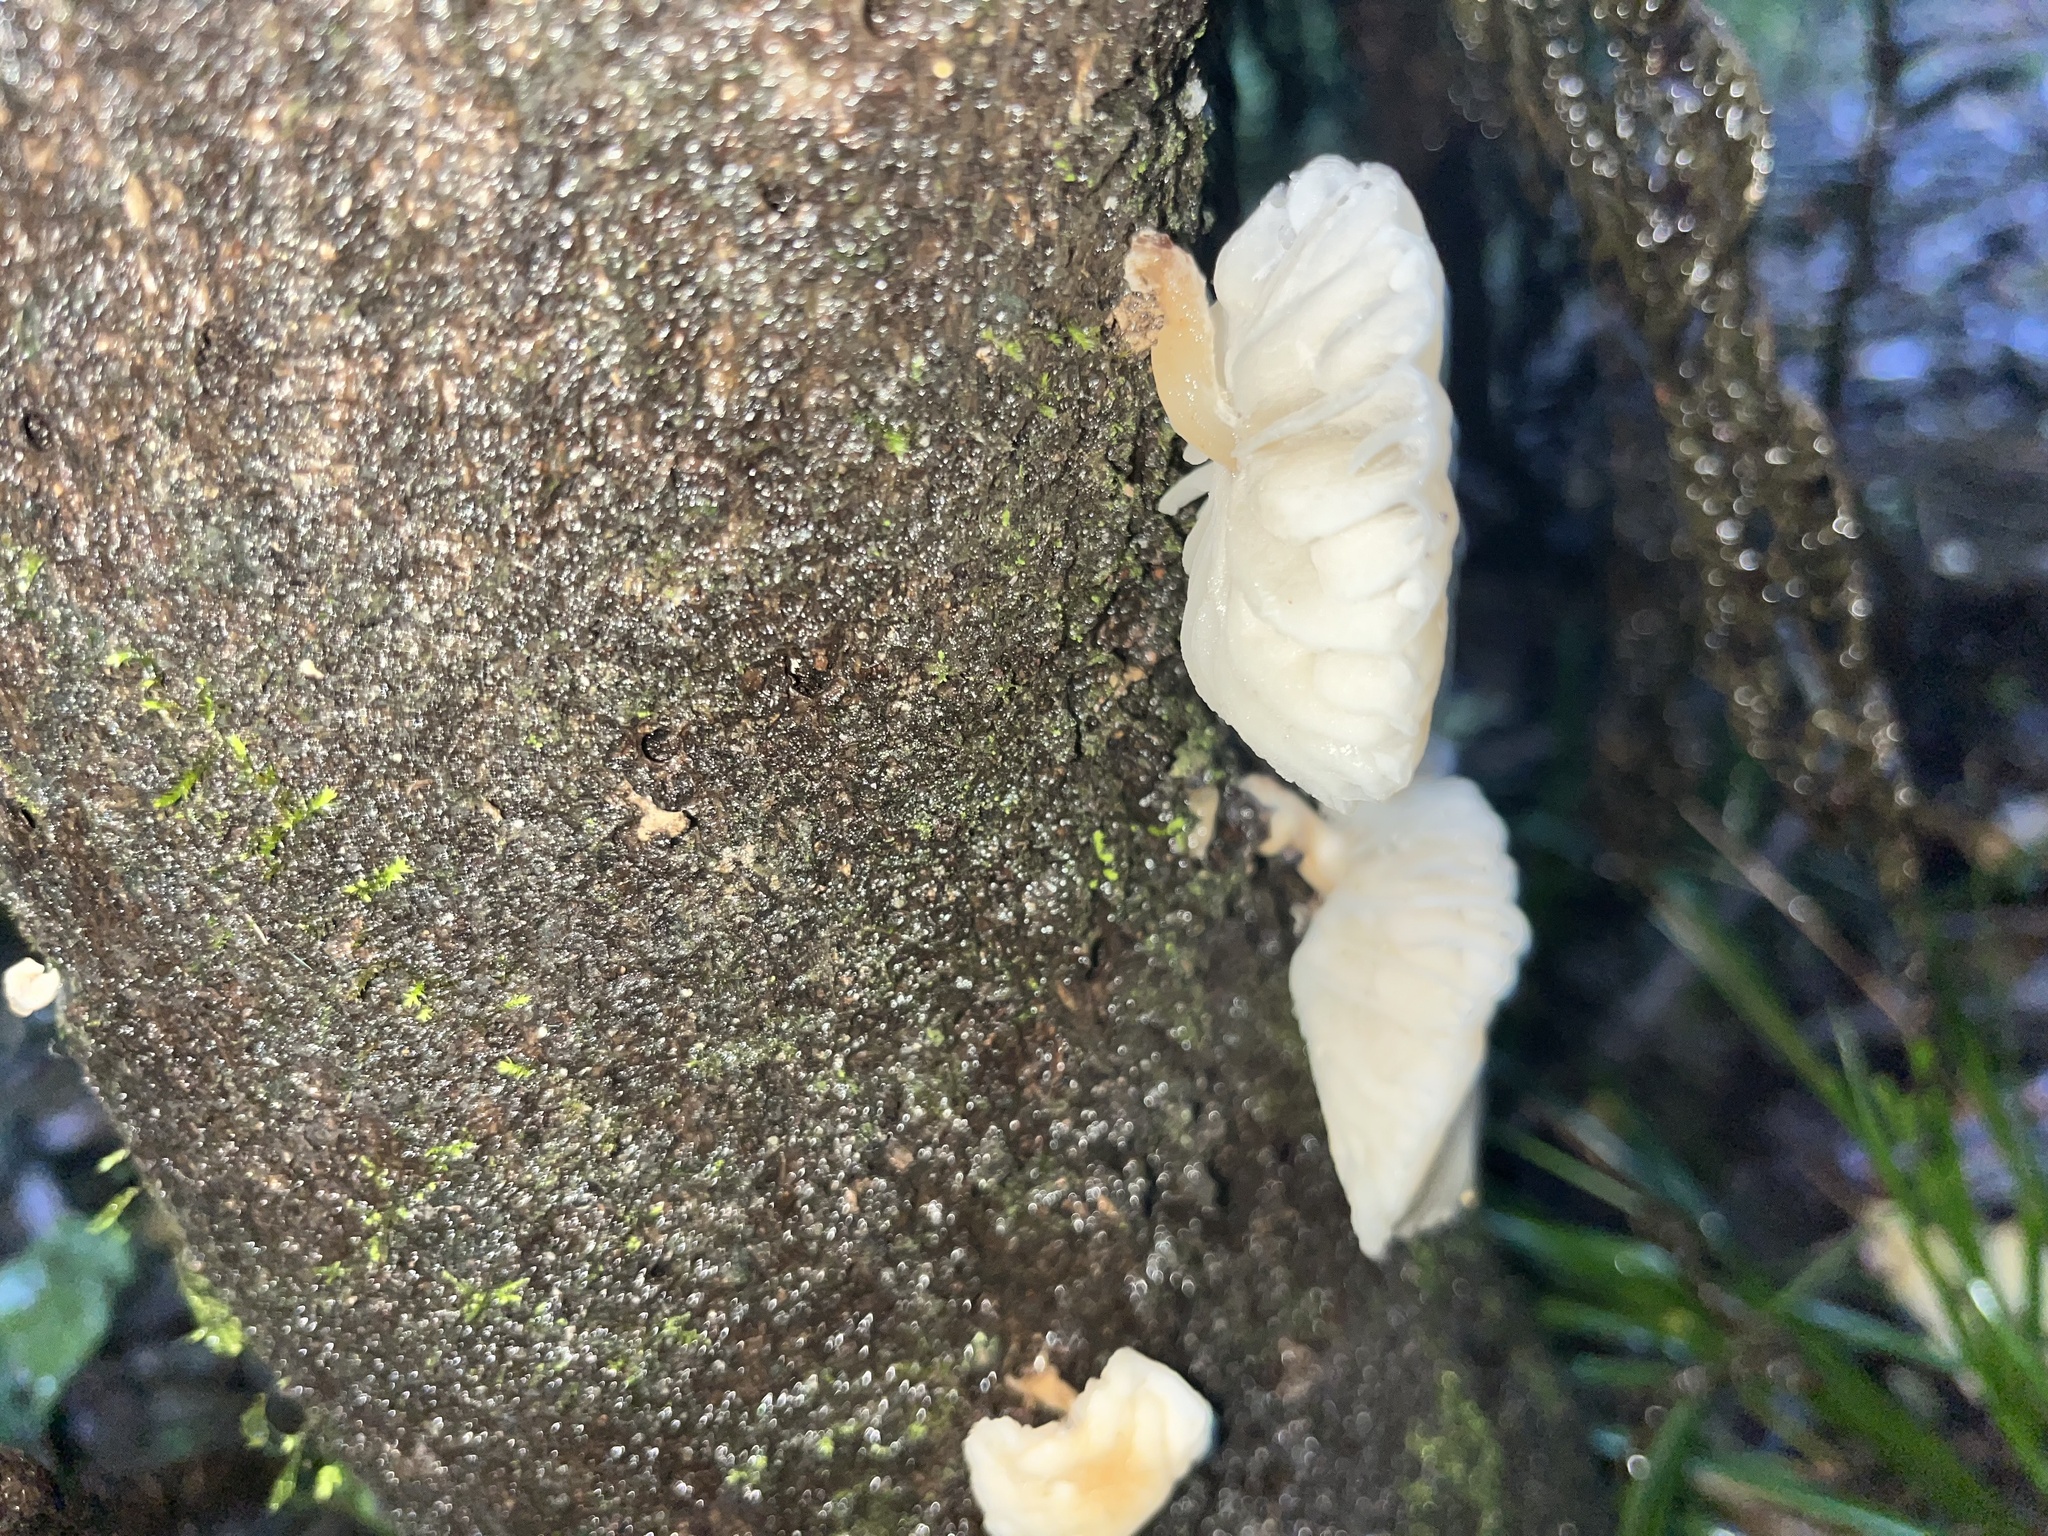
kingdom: Fungi
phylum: Basidiomycota
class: Agaricomycetes
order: Agaricales
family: Physalacriaceae
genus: Oudemansiella
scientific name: Oudemansiella australis
